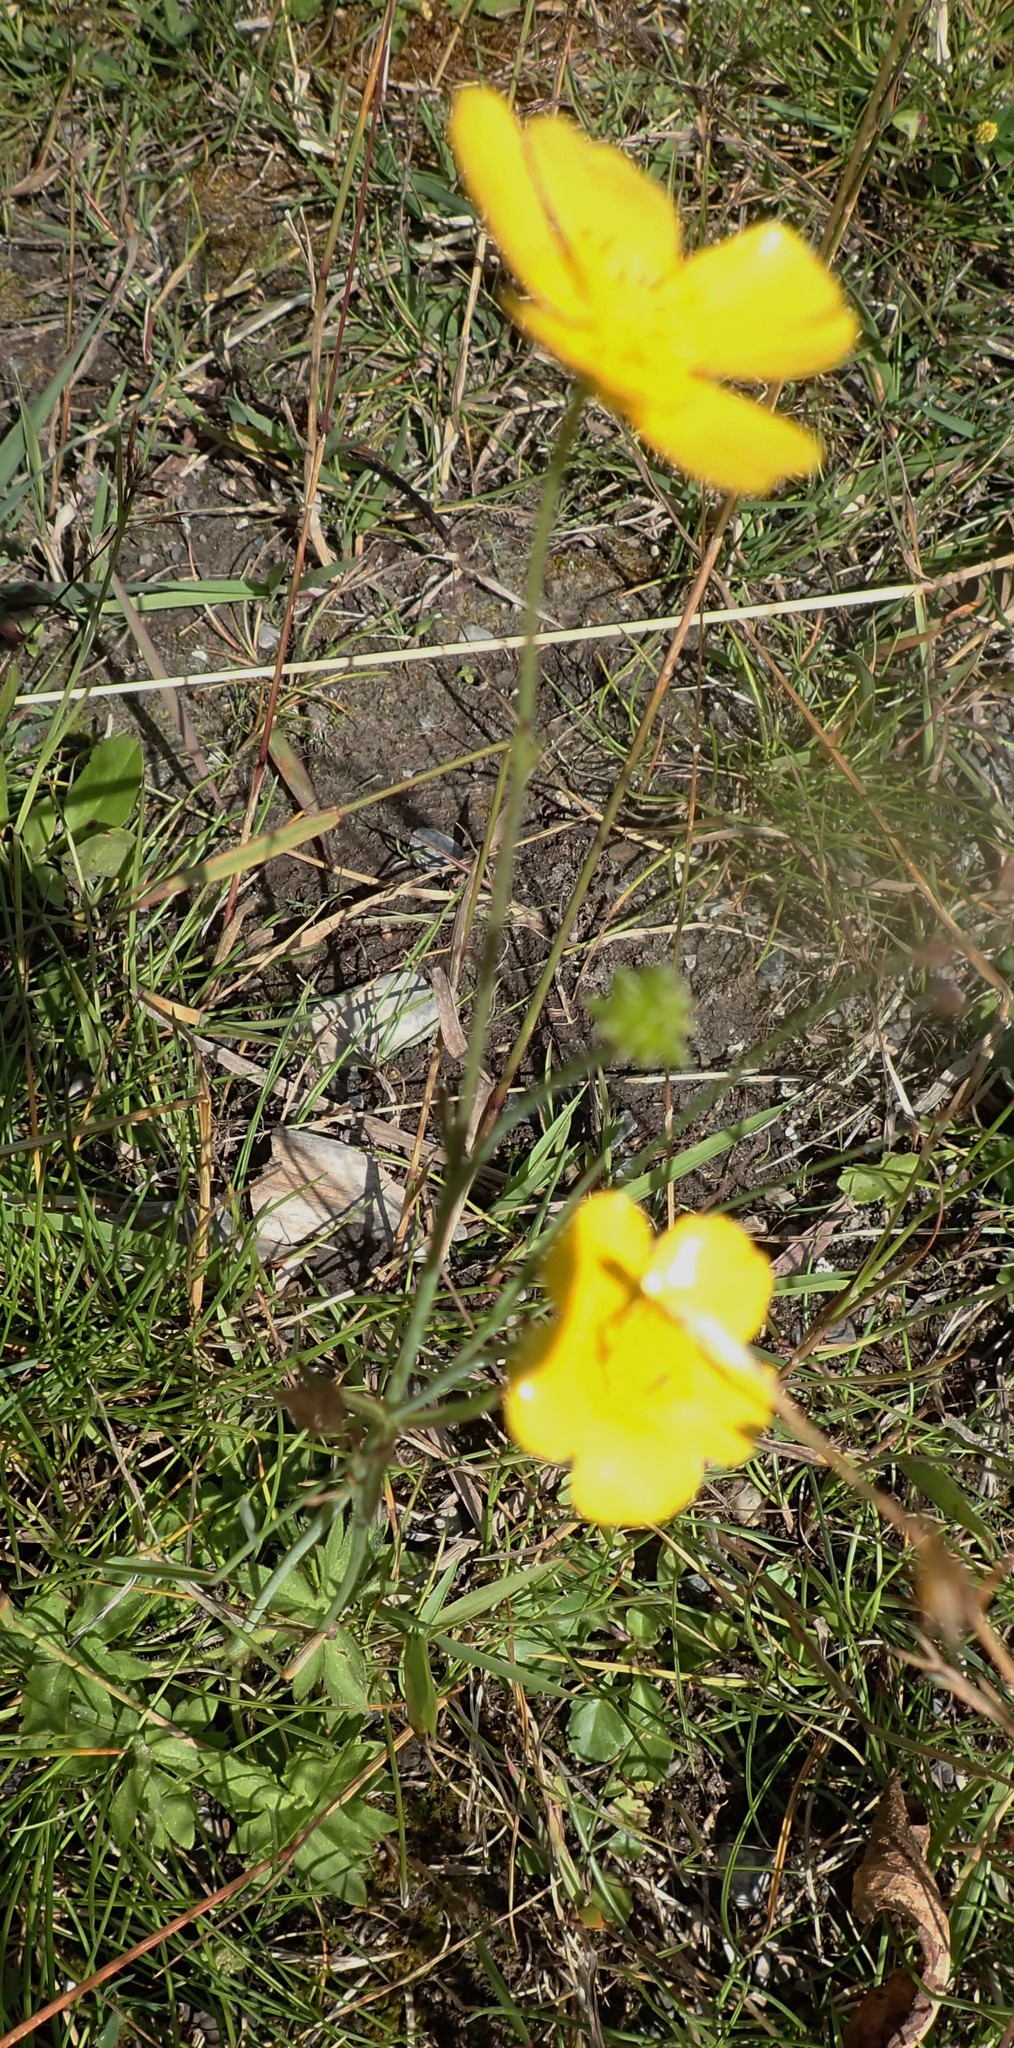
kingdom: Plantae
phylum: Tracheophyta
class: Magnoliopsida
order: Ranunculales
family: Ranunculaceae
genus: Ranunculus
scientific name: Ranunculus acris
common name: Meadow buttercup
